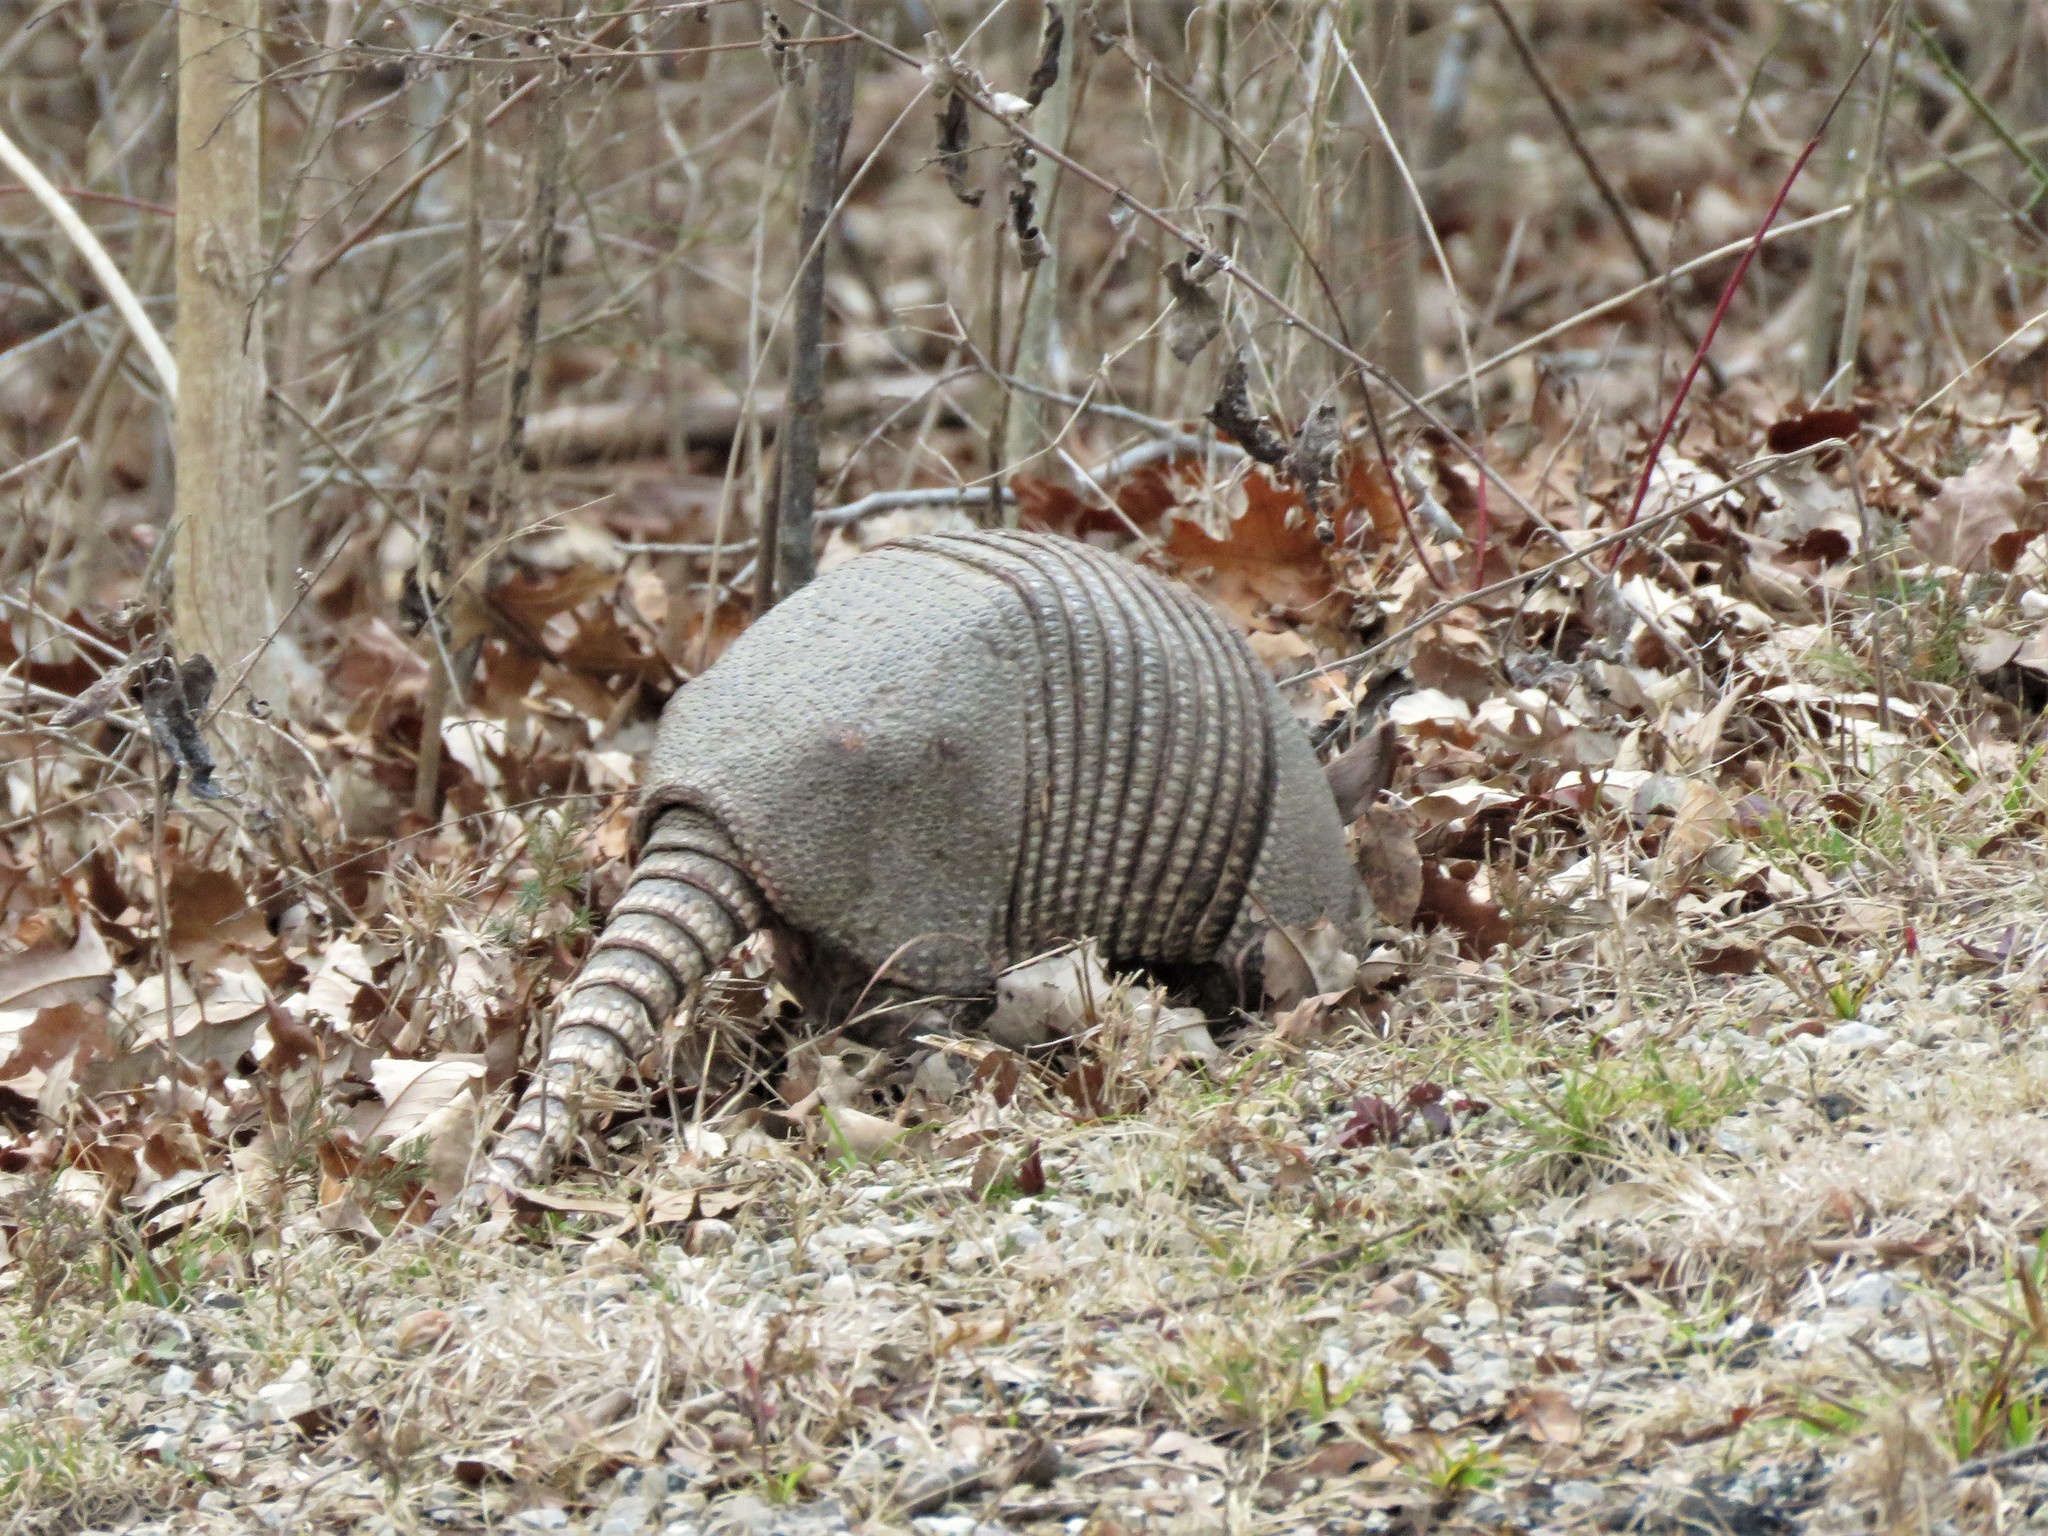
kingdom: Animalia
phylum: Chordata
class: Mammalia
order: Cingulata
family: Dasypodidae
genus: Dasypus
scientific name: Dasypus novemcinctus
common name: Nine-banded armadillo
